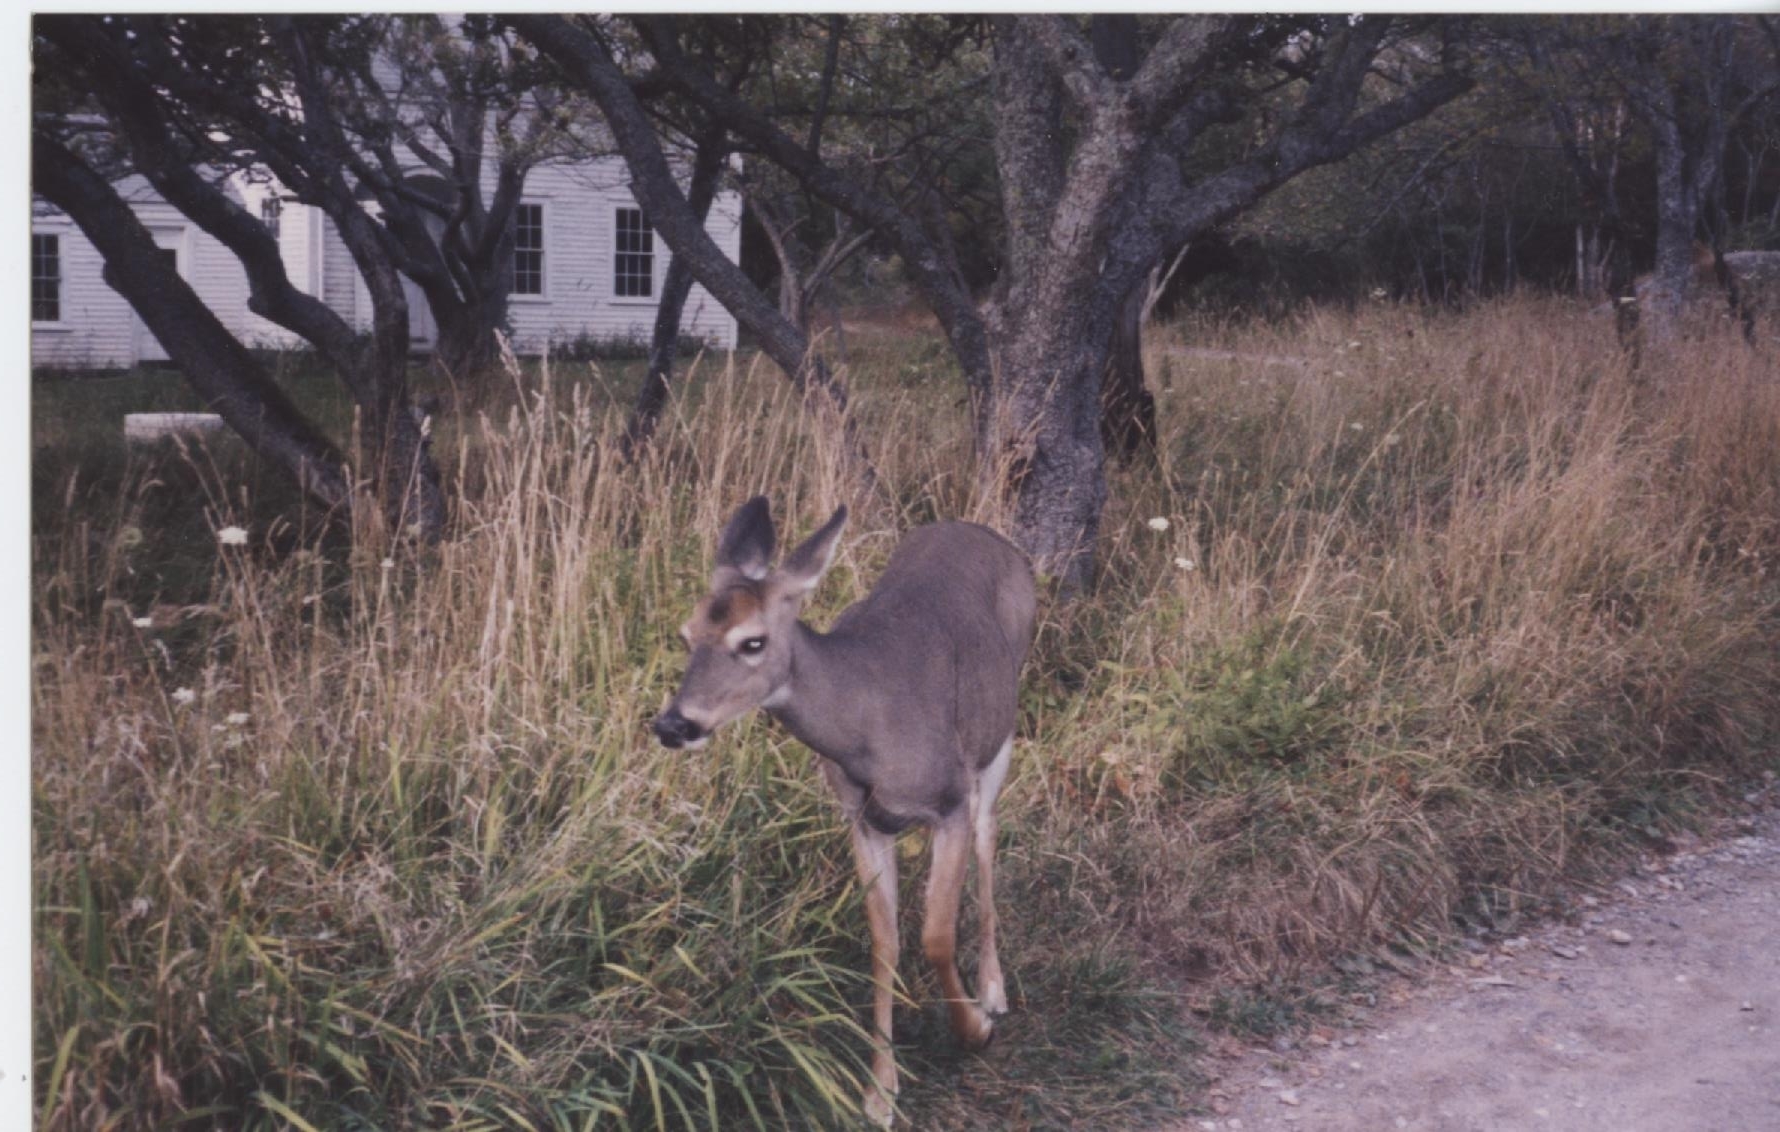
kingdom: Animalia
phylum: Chordata
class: Mammalia
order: Artiodactyla
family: Cervidae
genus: Odocoileus
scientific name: Odocoileus virginianus
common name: White-tailed deer
